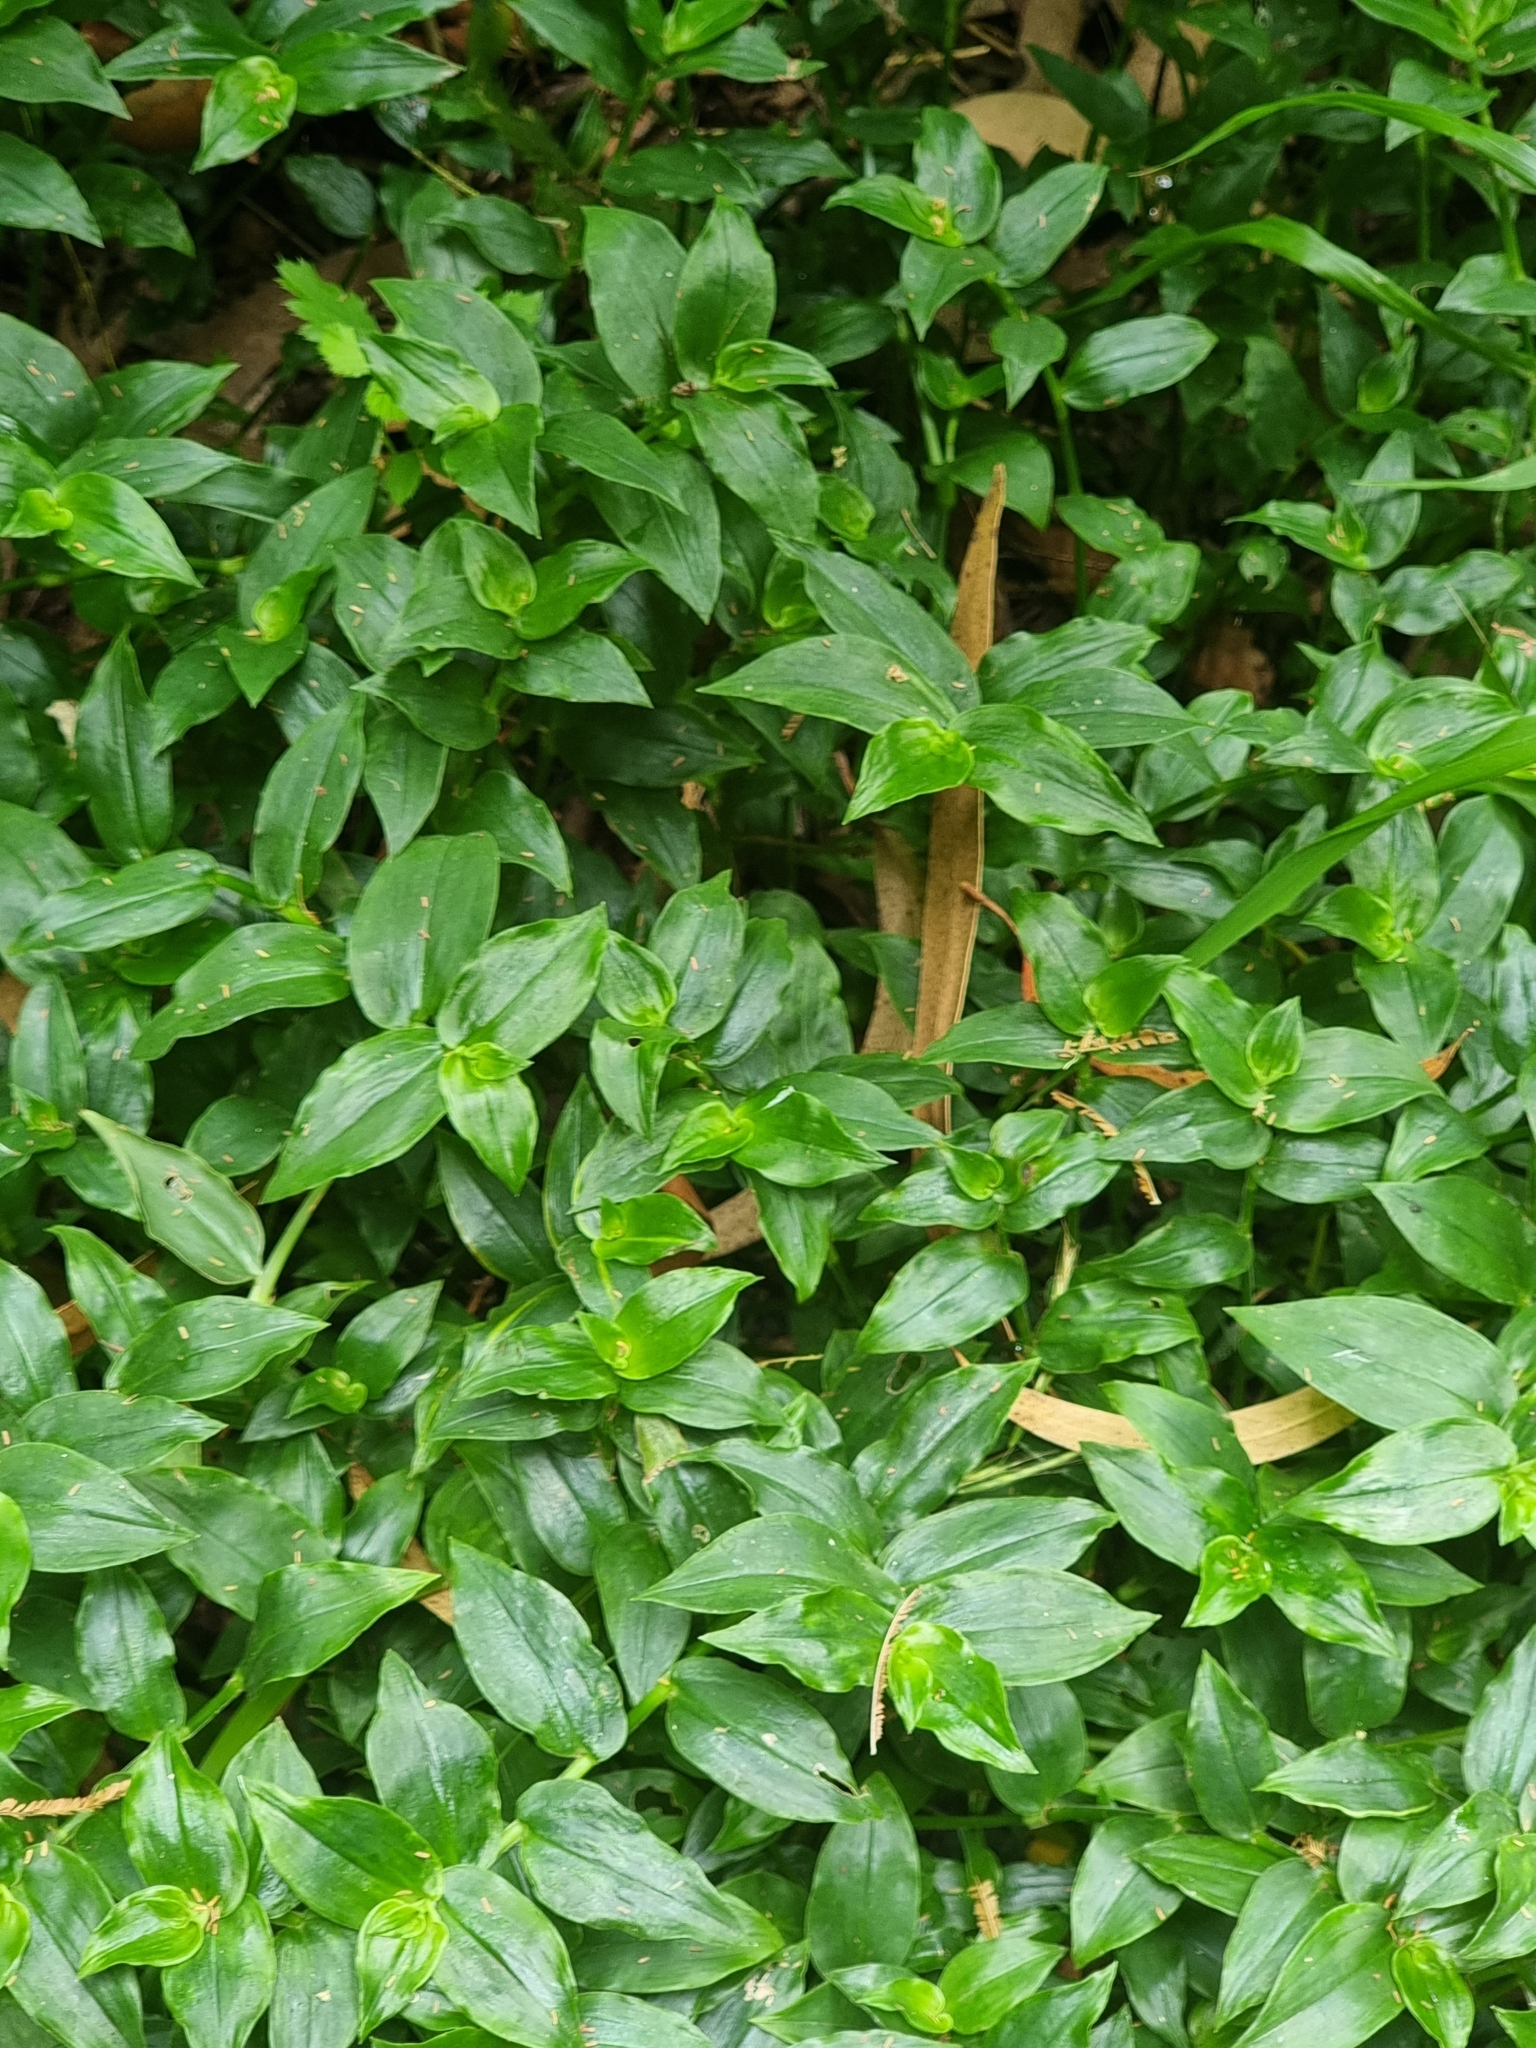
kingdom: Plantae
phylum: Tracheophyta
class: Liliopsida
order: Commelinales
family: Commelinaceae
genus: Tradescantia
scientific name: Tradescantia fluminensis
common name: Wandering-jew
